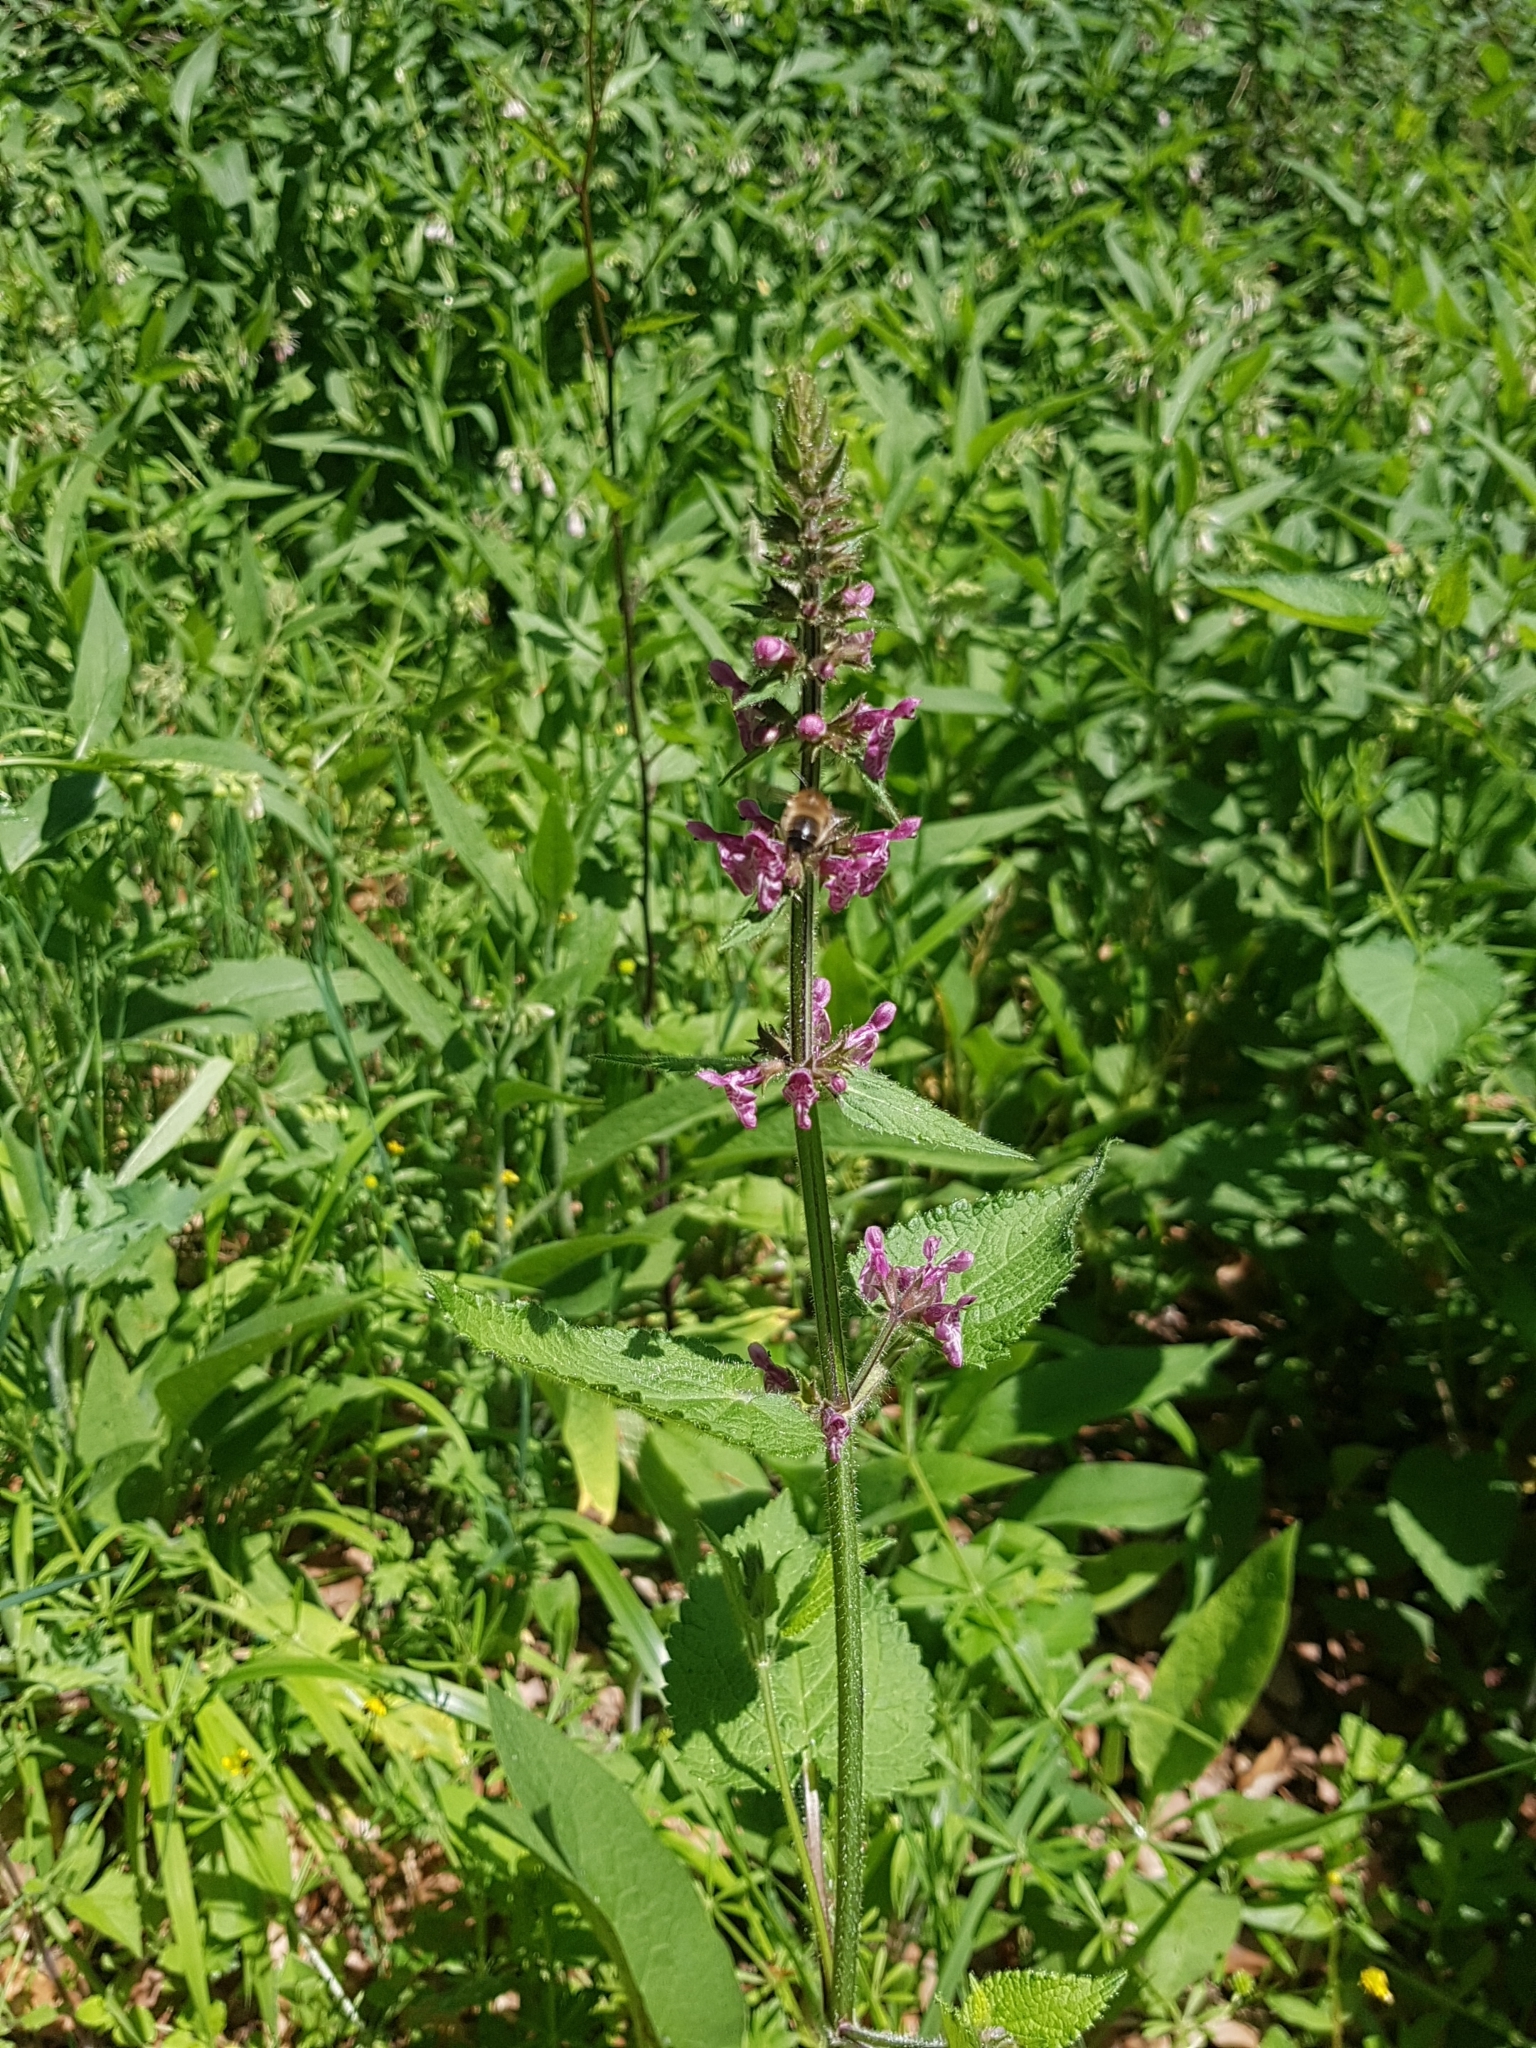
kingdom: Plantae
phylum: Tracheophyta
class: Magnoliopsida
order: Lamiales
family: Lamiaceae
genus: Stachys
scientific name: Stachys sylvatica
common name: Hedge woundwort
